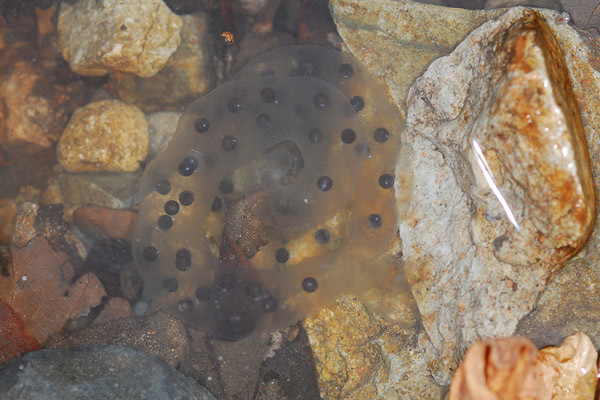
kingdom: Animalia
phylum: Chordata
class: Amphibia
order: Caudata
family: Hynobiidae
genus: Hynobius
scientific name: Hynobius leechii
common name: Gensan salamander
